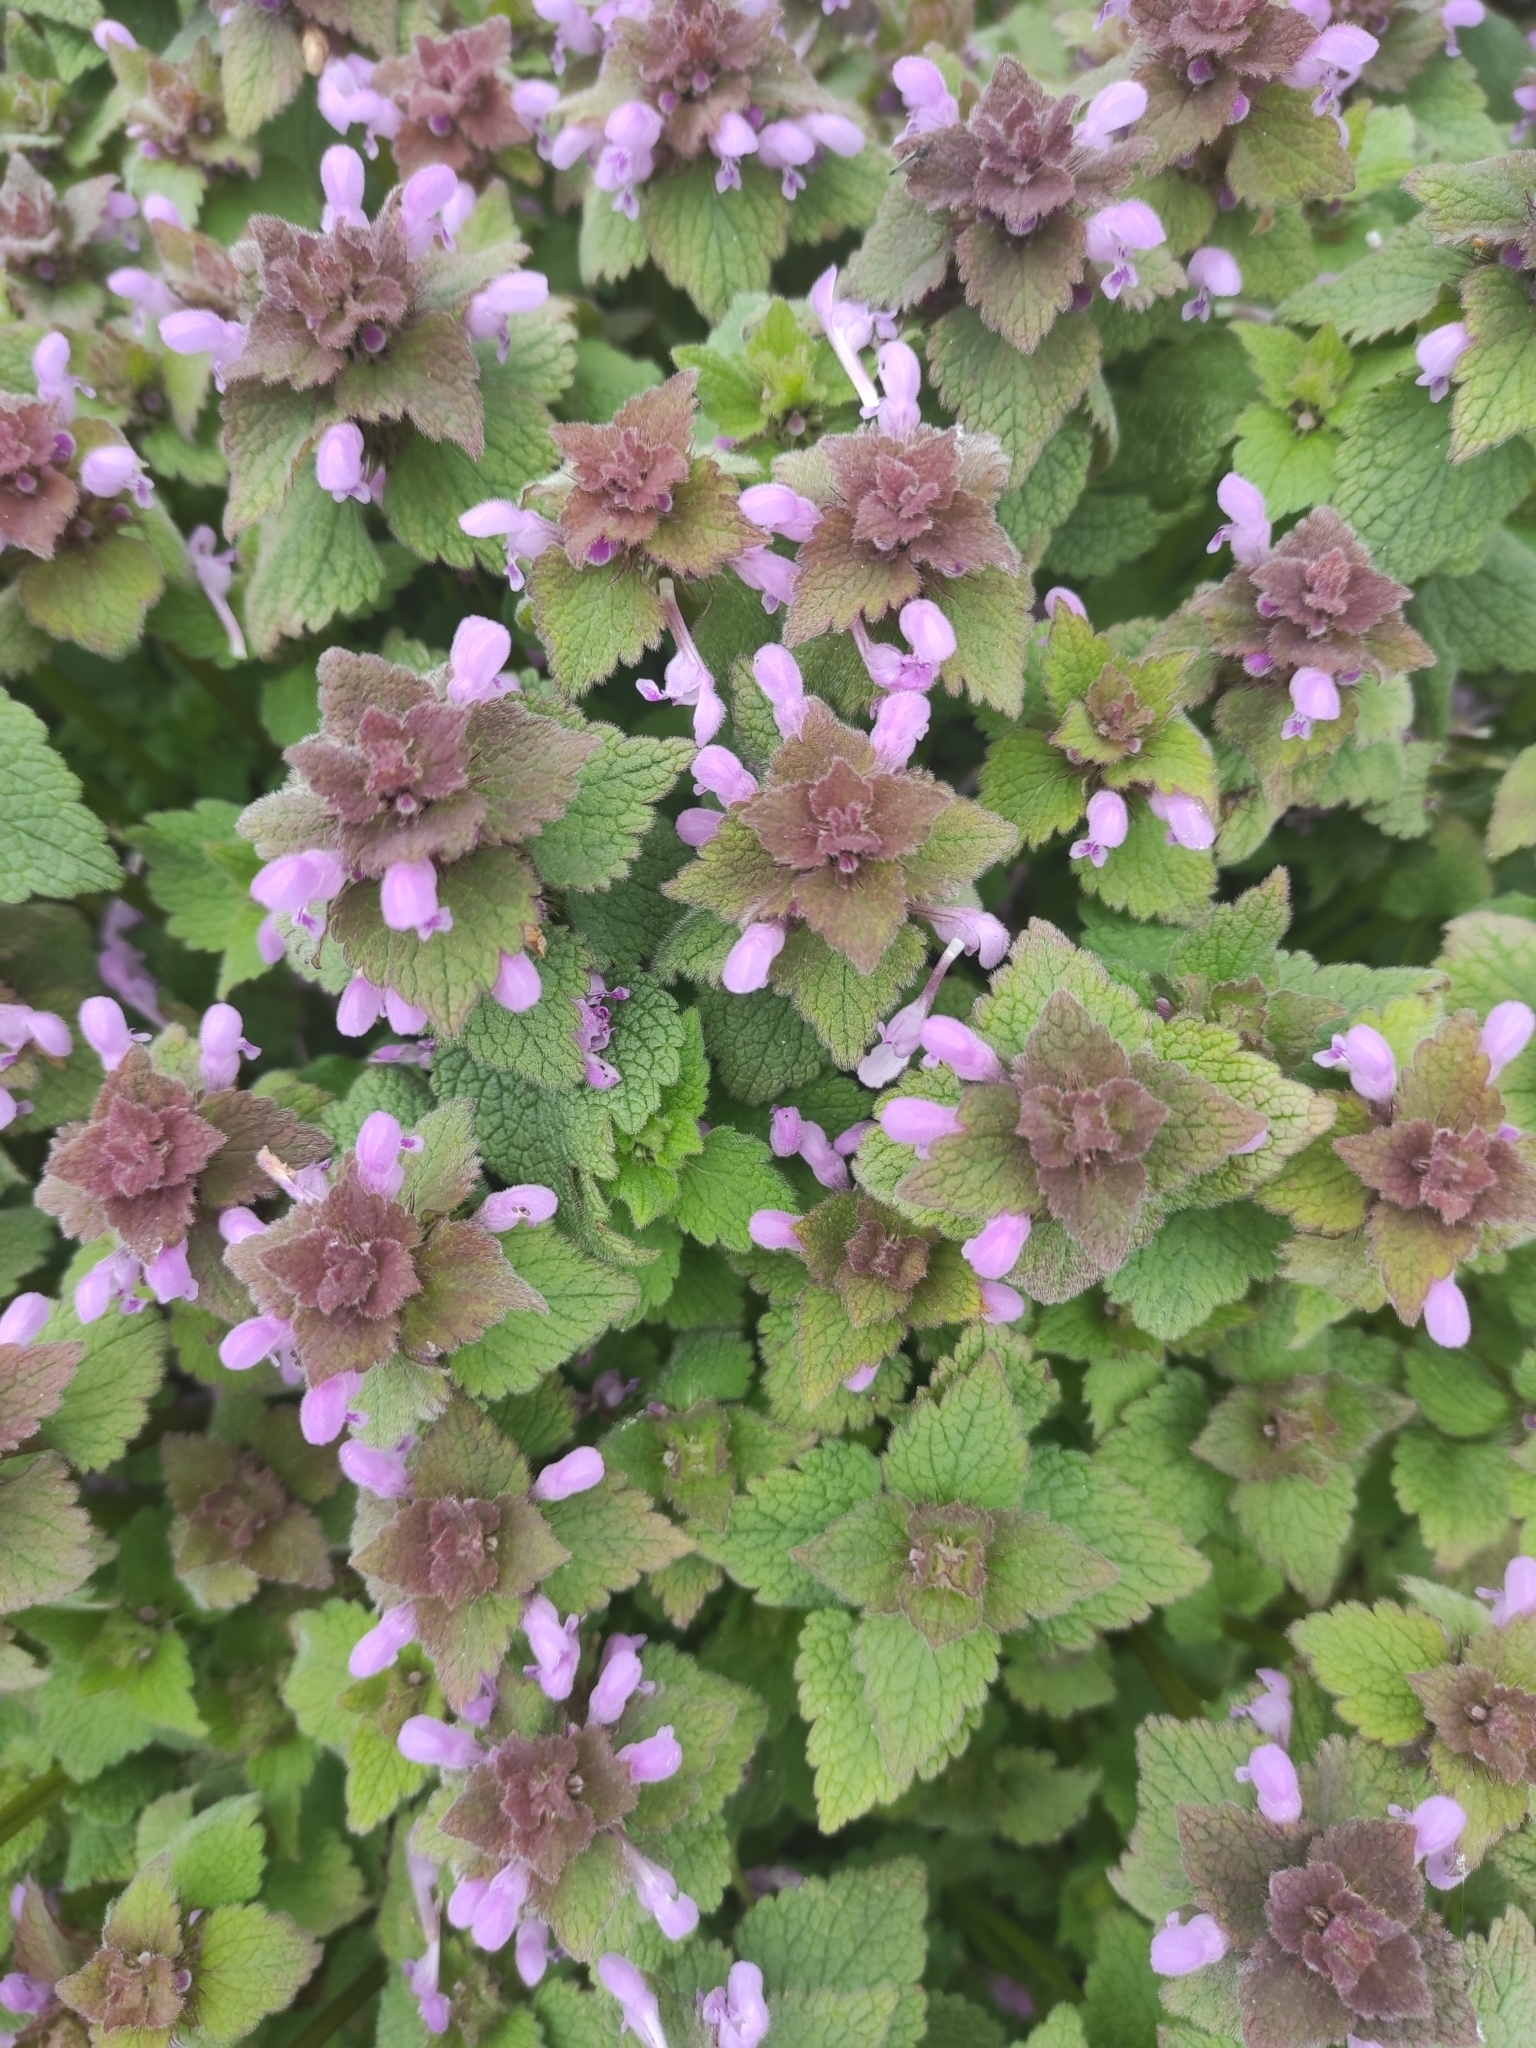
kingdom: Plantae
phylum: Tracheophyta
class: Magnoliopsida
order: Lamiales
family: Lamiaceae
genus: Lamium
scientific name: Lamium purpureum
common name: Red dead-nettle
